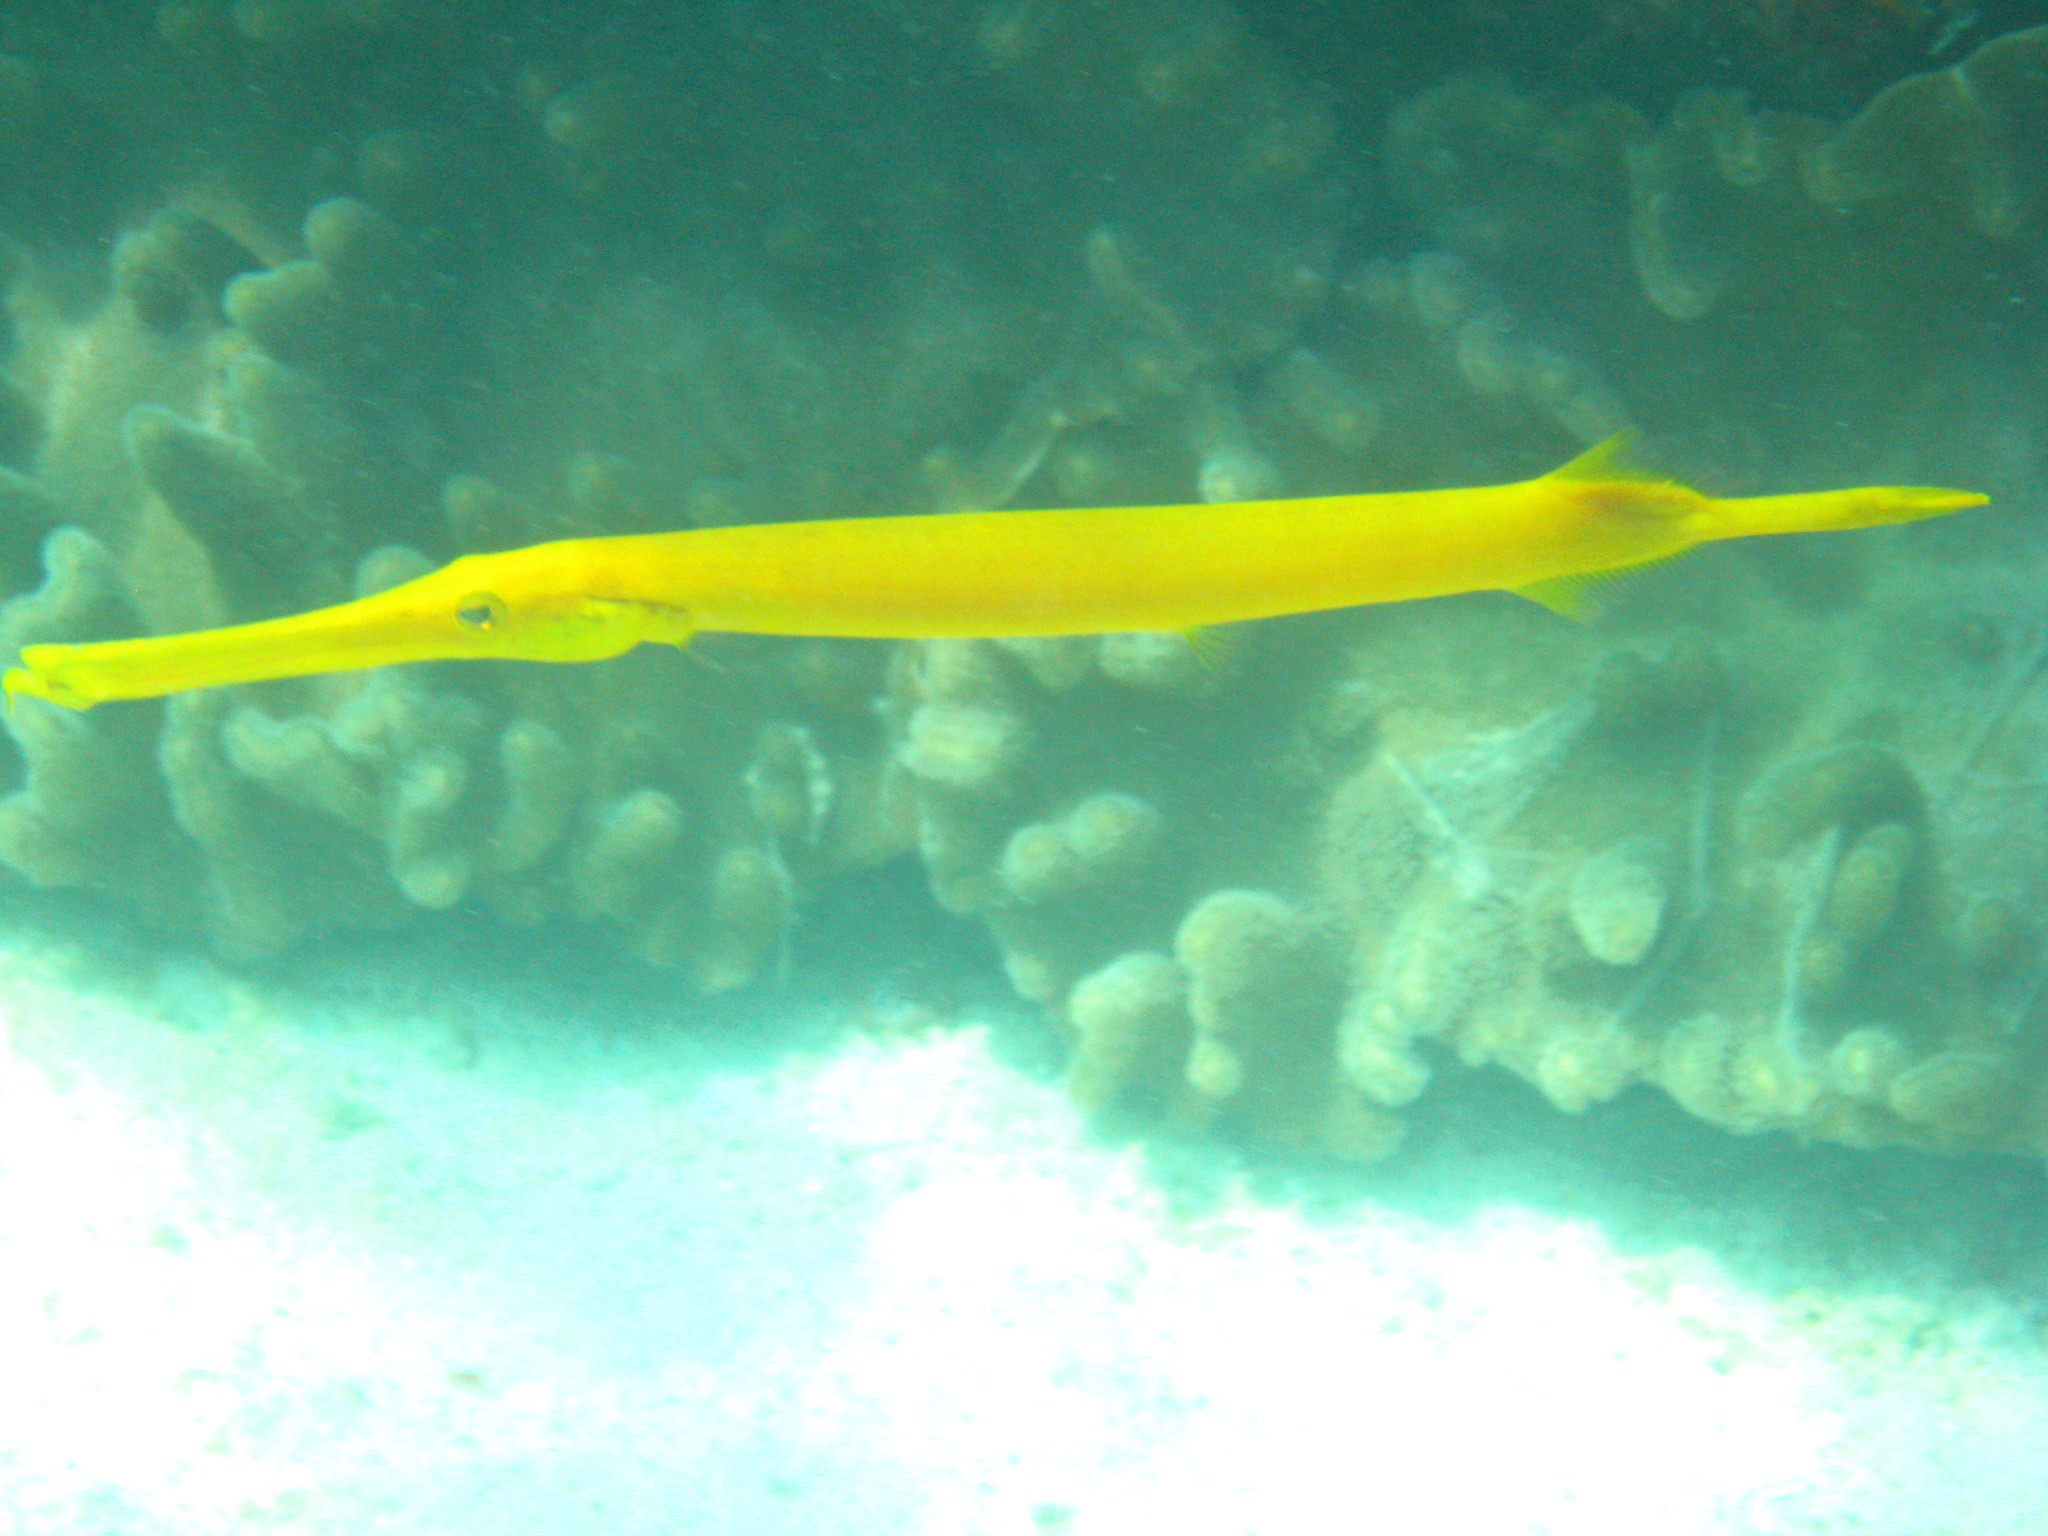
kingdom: Animalia
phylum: Chordata
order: Syngnathiformes
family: Aulostomidae
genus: Aulostomus
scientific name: Aulostomus chinensis
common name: Chinese trumpetfish
